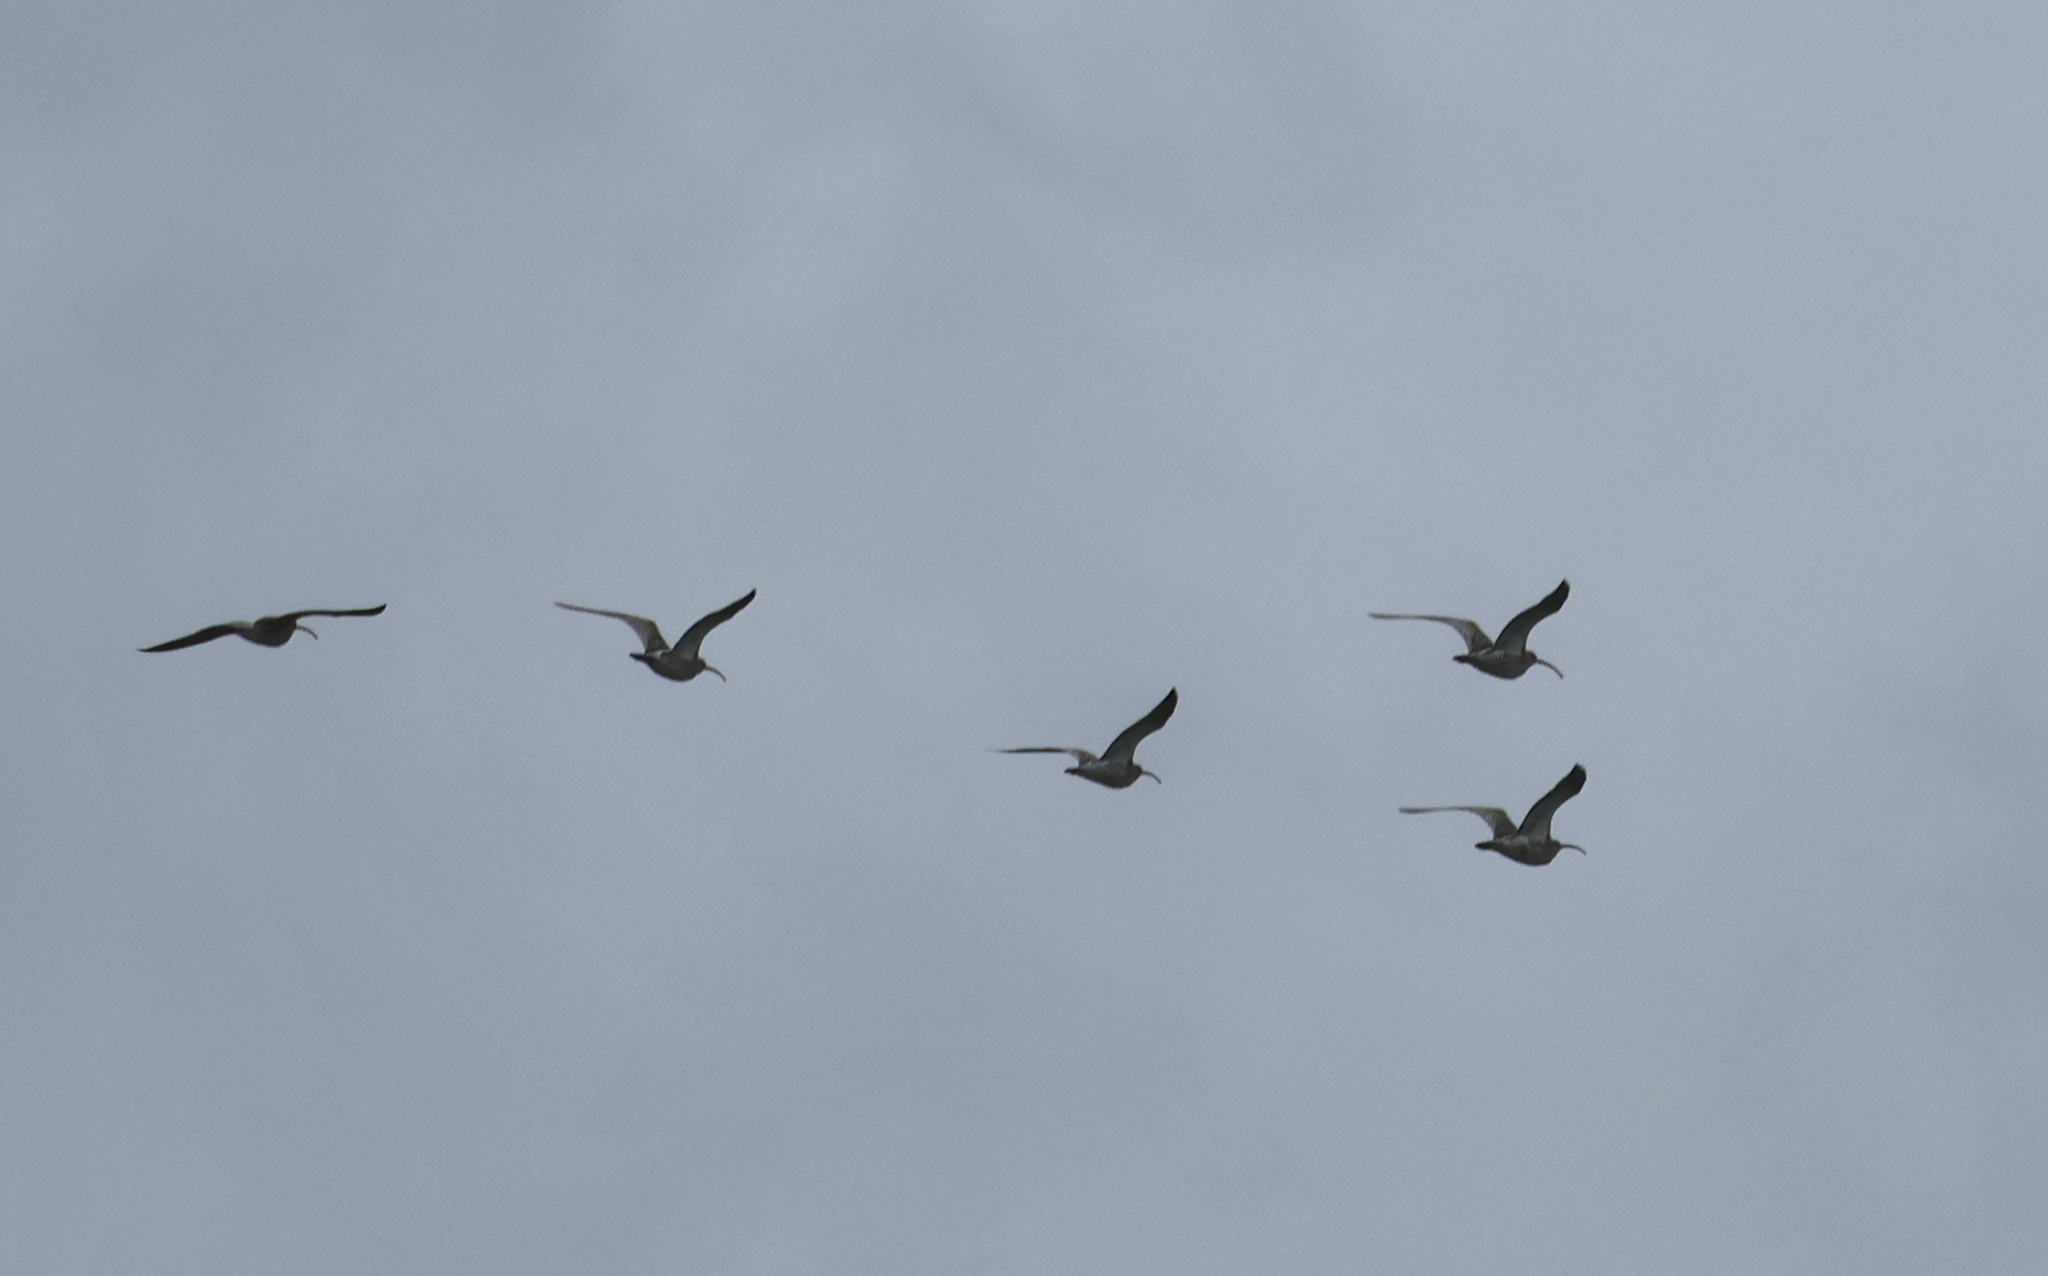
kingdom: Animalia
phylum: Chordata
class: Aves
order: Charadriiformes
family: Scolopacidae
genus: Numenius
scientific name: Numenius phaeopus
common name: Whimbrel
